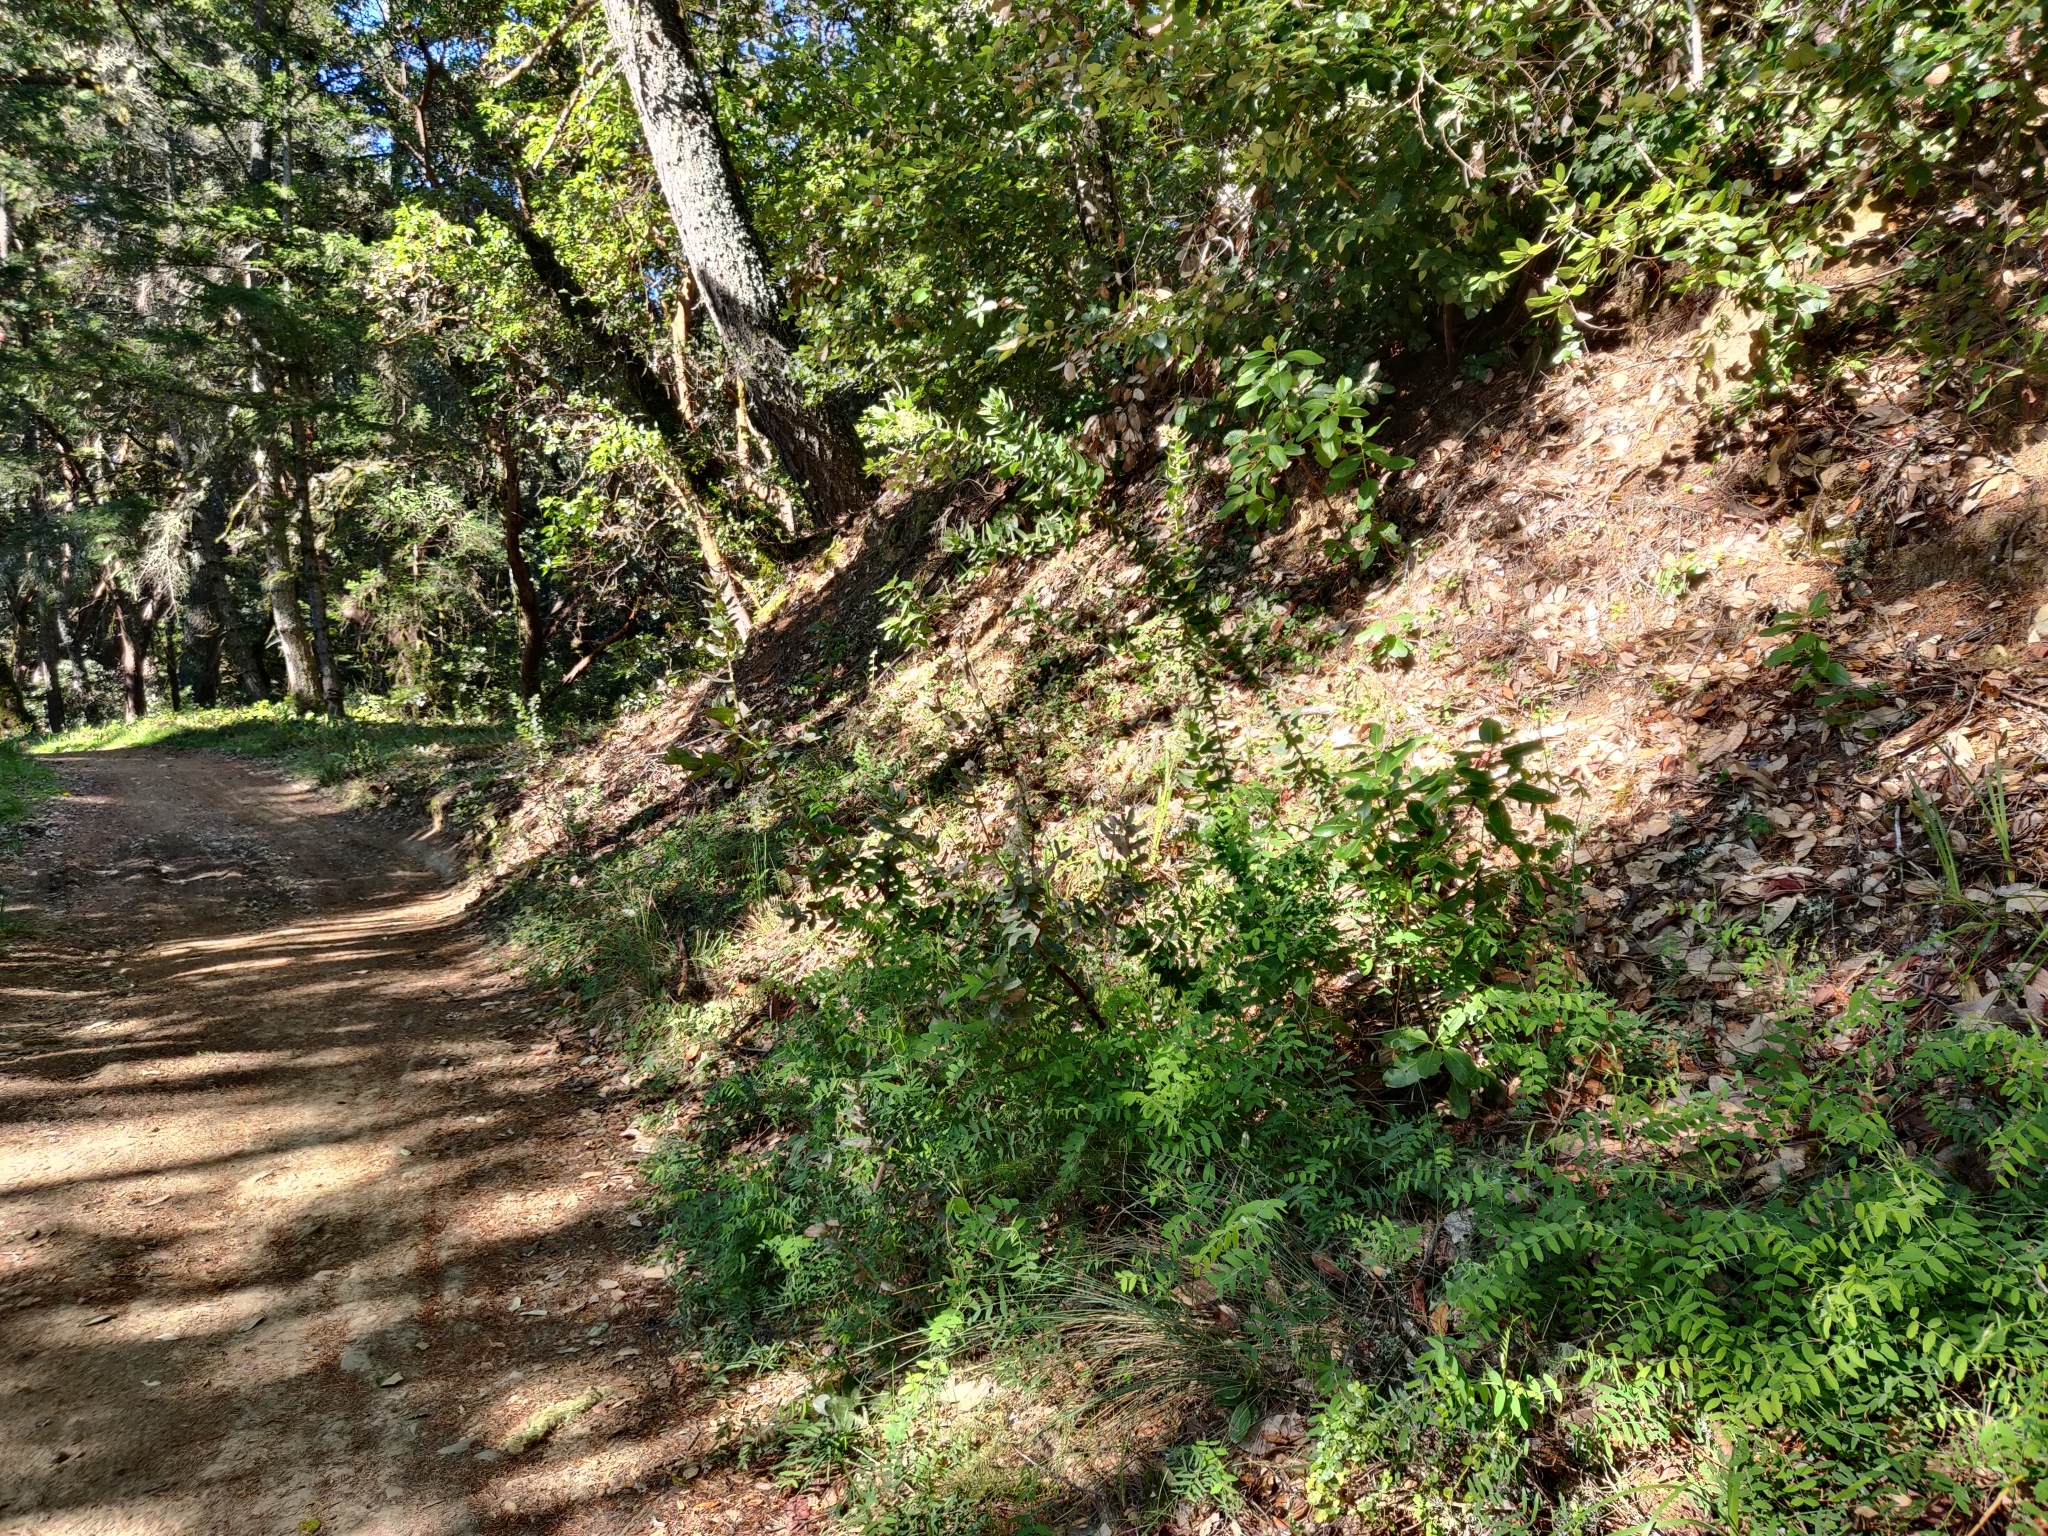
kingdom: Plantae
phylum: Tracheophyta
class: Magnoliopsida
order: Ericales
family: Ericaceae
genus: Arctostaphylos
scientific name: Arctostaphylos regismontana
